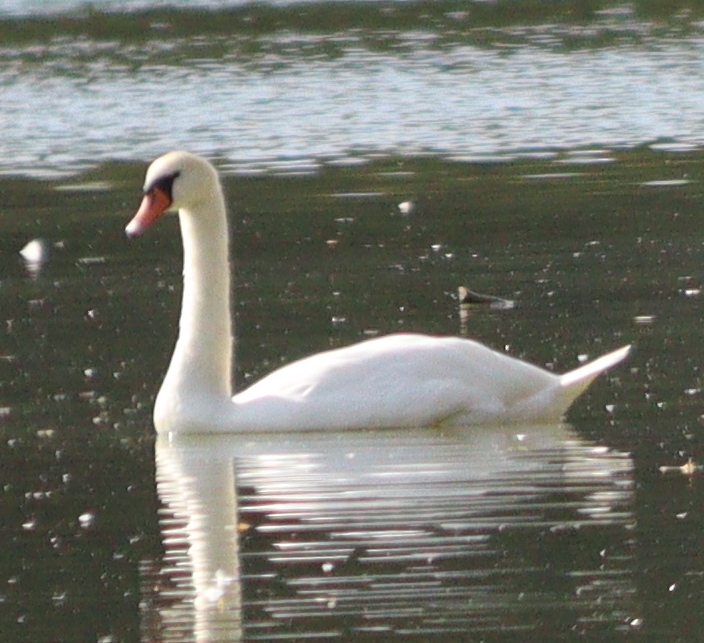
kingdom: Animalia
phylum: Chordata
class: Aves
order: Anseriformes
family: Anatidae
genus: Cygnus
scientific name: Cygnus olor
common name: Mute swan
